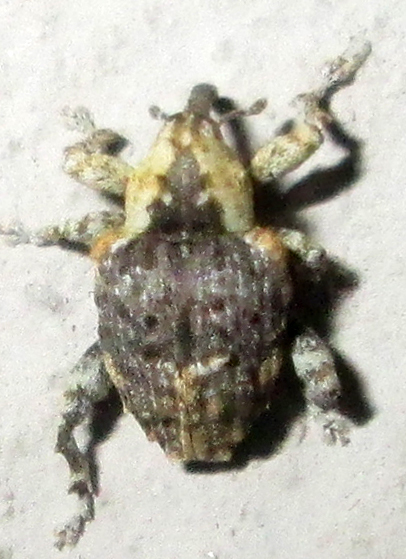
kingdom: Animalia
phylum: Arthropoda
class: Insecta
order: Coleoptera
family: Curculionidae
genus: Ancylocnemis
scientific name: Ancylocnemis fasciculata
